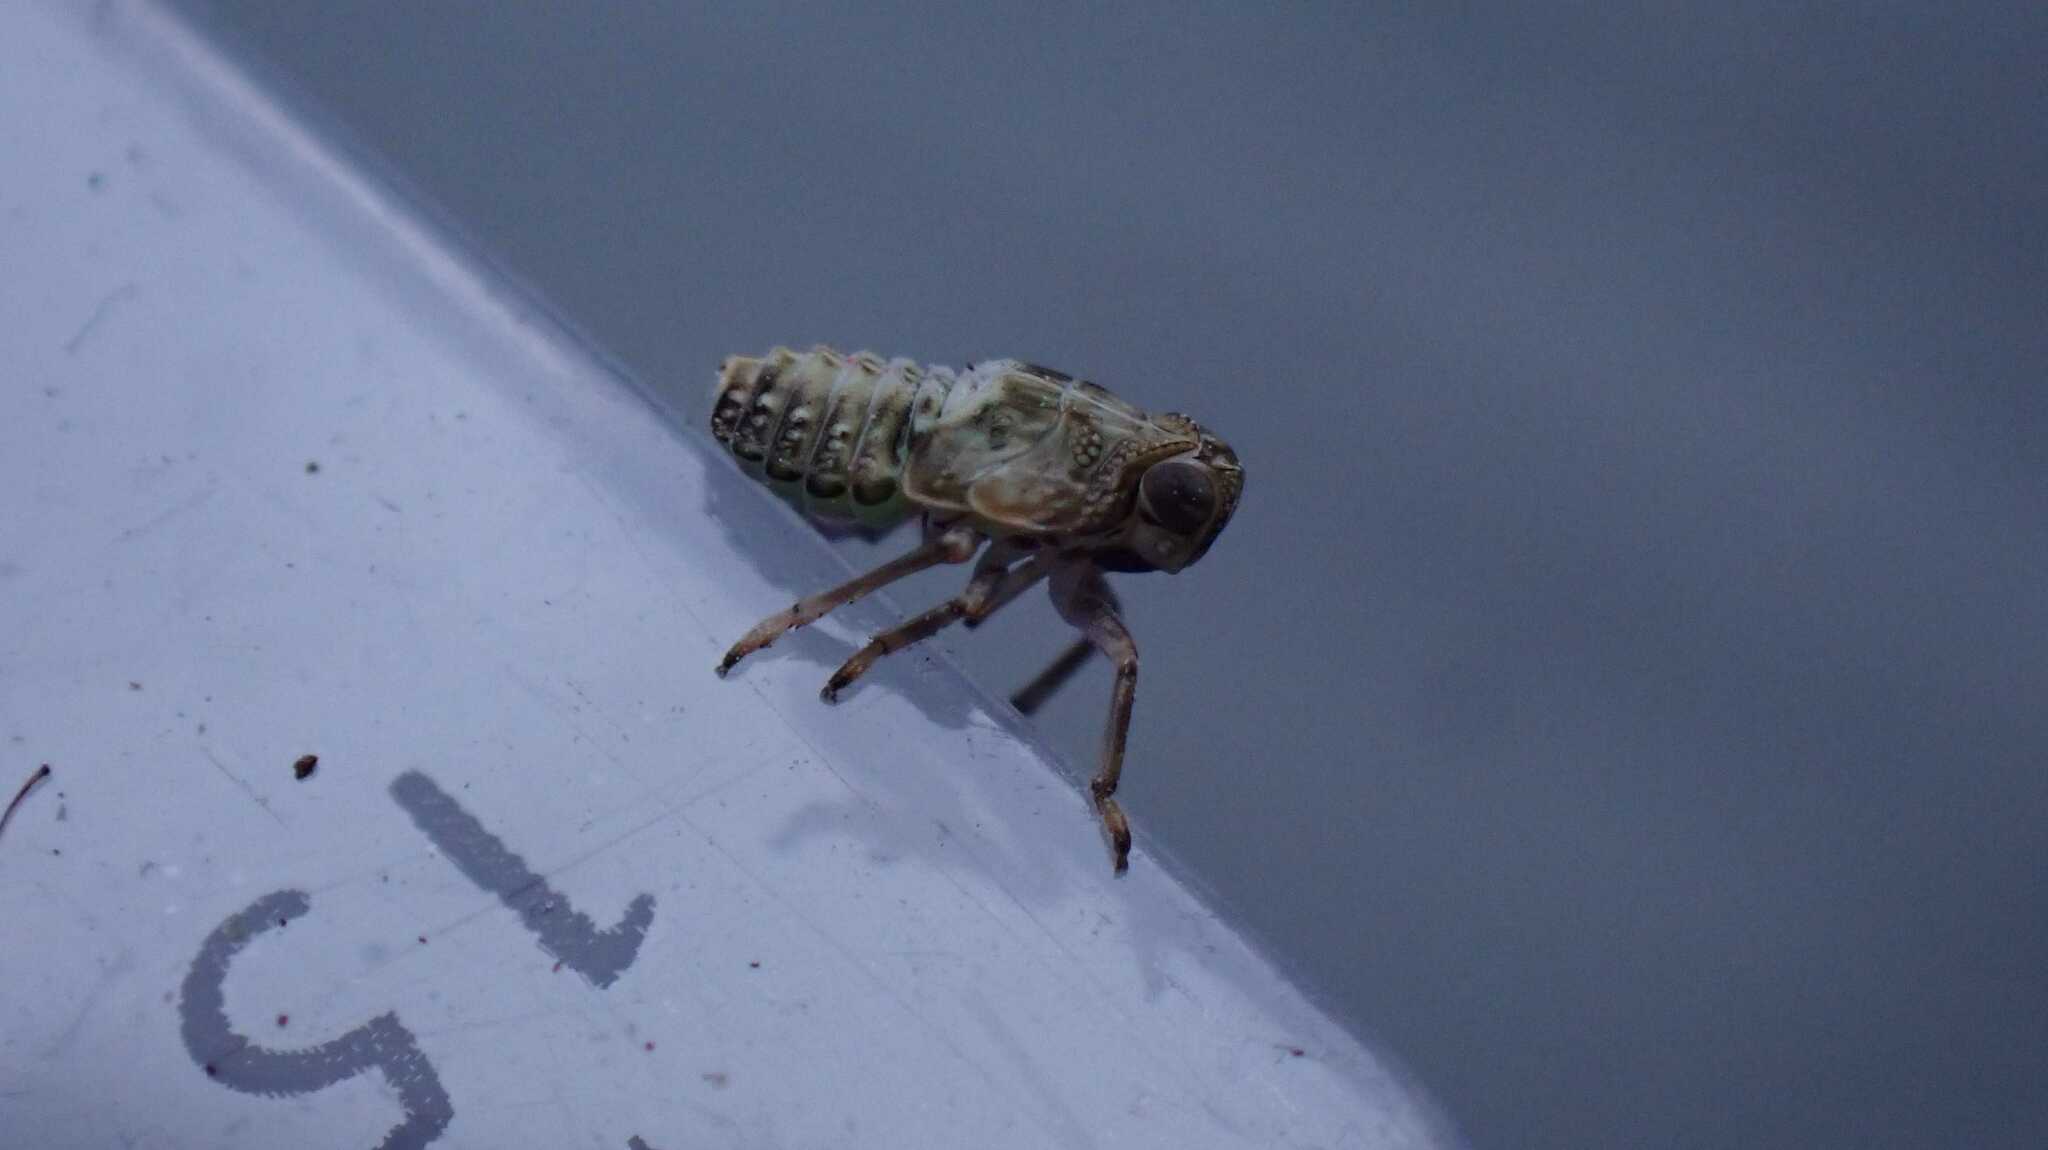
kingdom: Animalia
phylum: Arthropoda
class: Insecta
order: Hemiptera
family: Issidae
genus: Issus
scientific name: Issus coleoptratus
